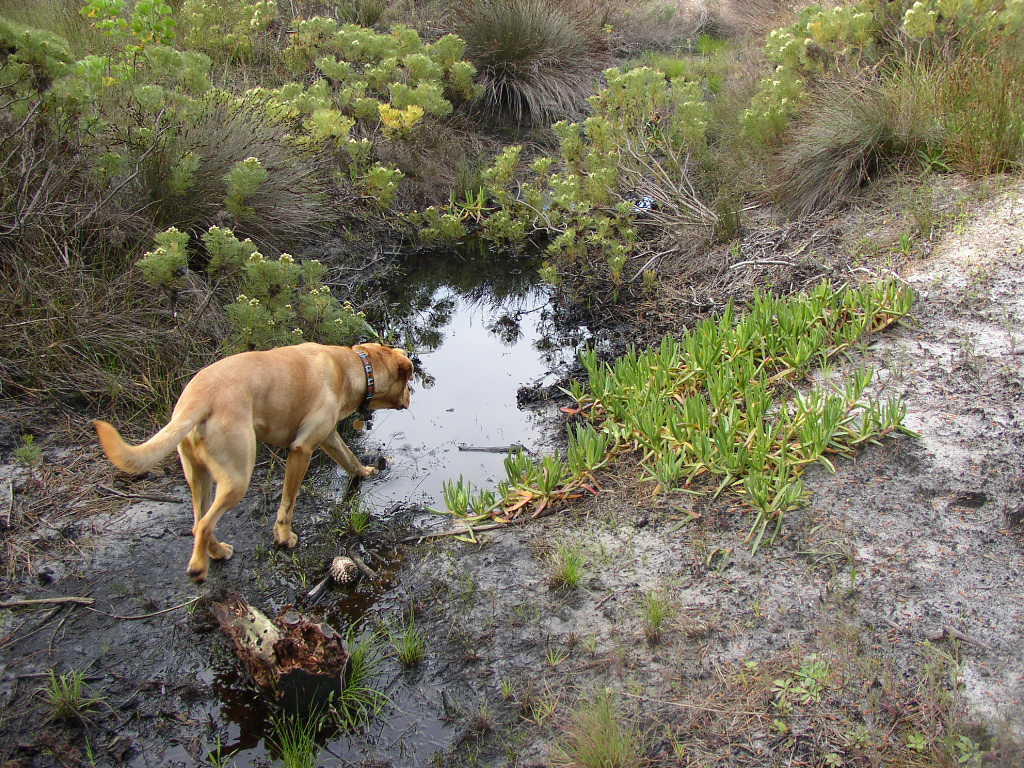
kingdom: Plantae
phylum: Tracheophyta
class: Magnoliopsida
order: Proteales
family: Proteaceae
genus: Serruria
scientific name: Serruria glomerata
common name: Cluster spiderhead
